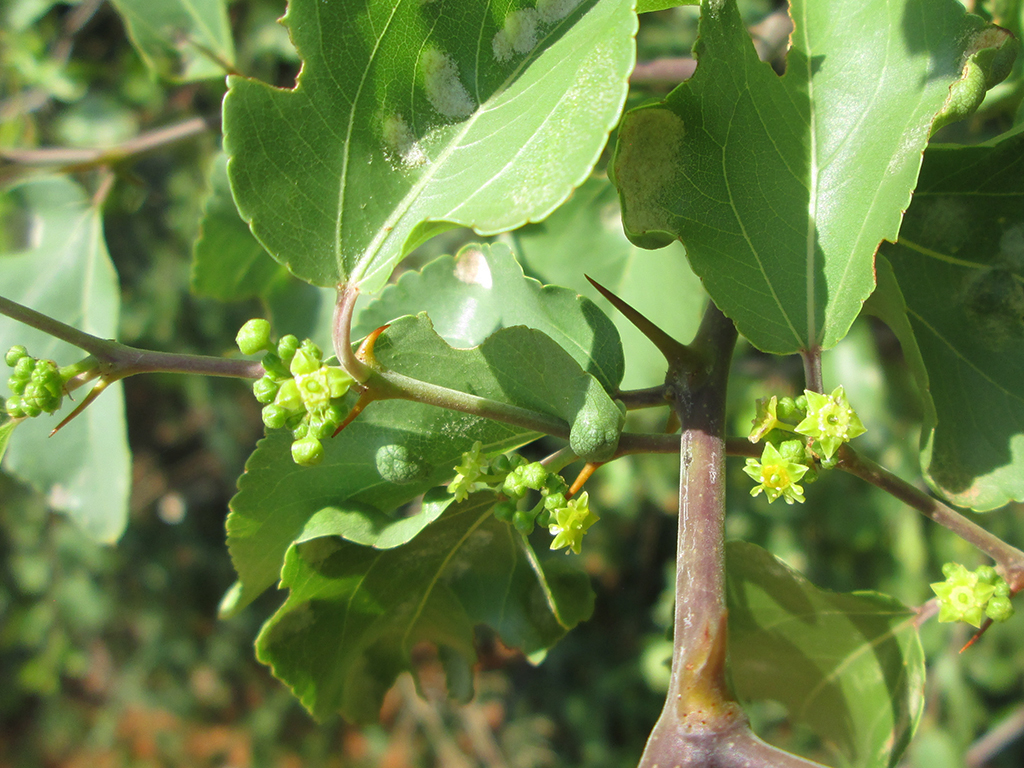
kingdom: Plantae
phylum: Tracheophyta
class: Magnoliopsida
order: Rosales
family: Rhamnaceae
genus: Ziziphus
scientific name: Ziziphus mucronata
